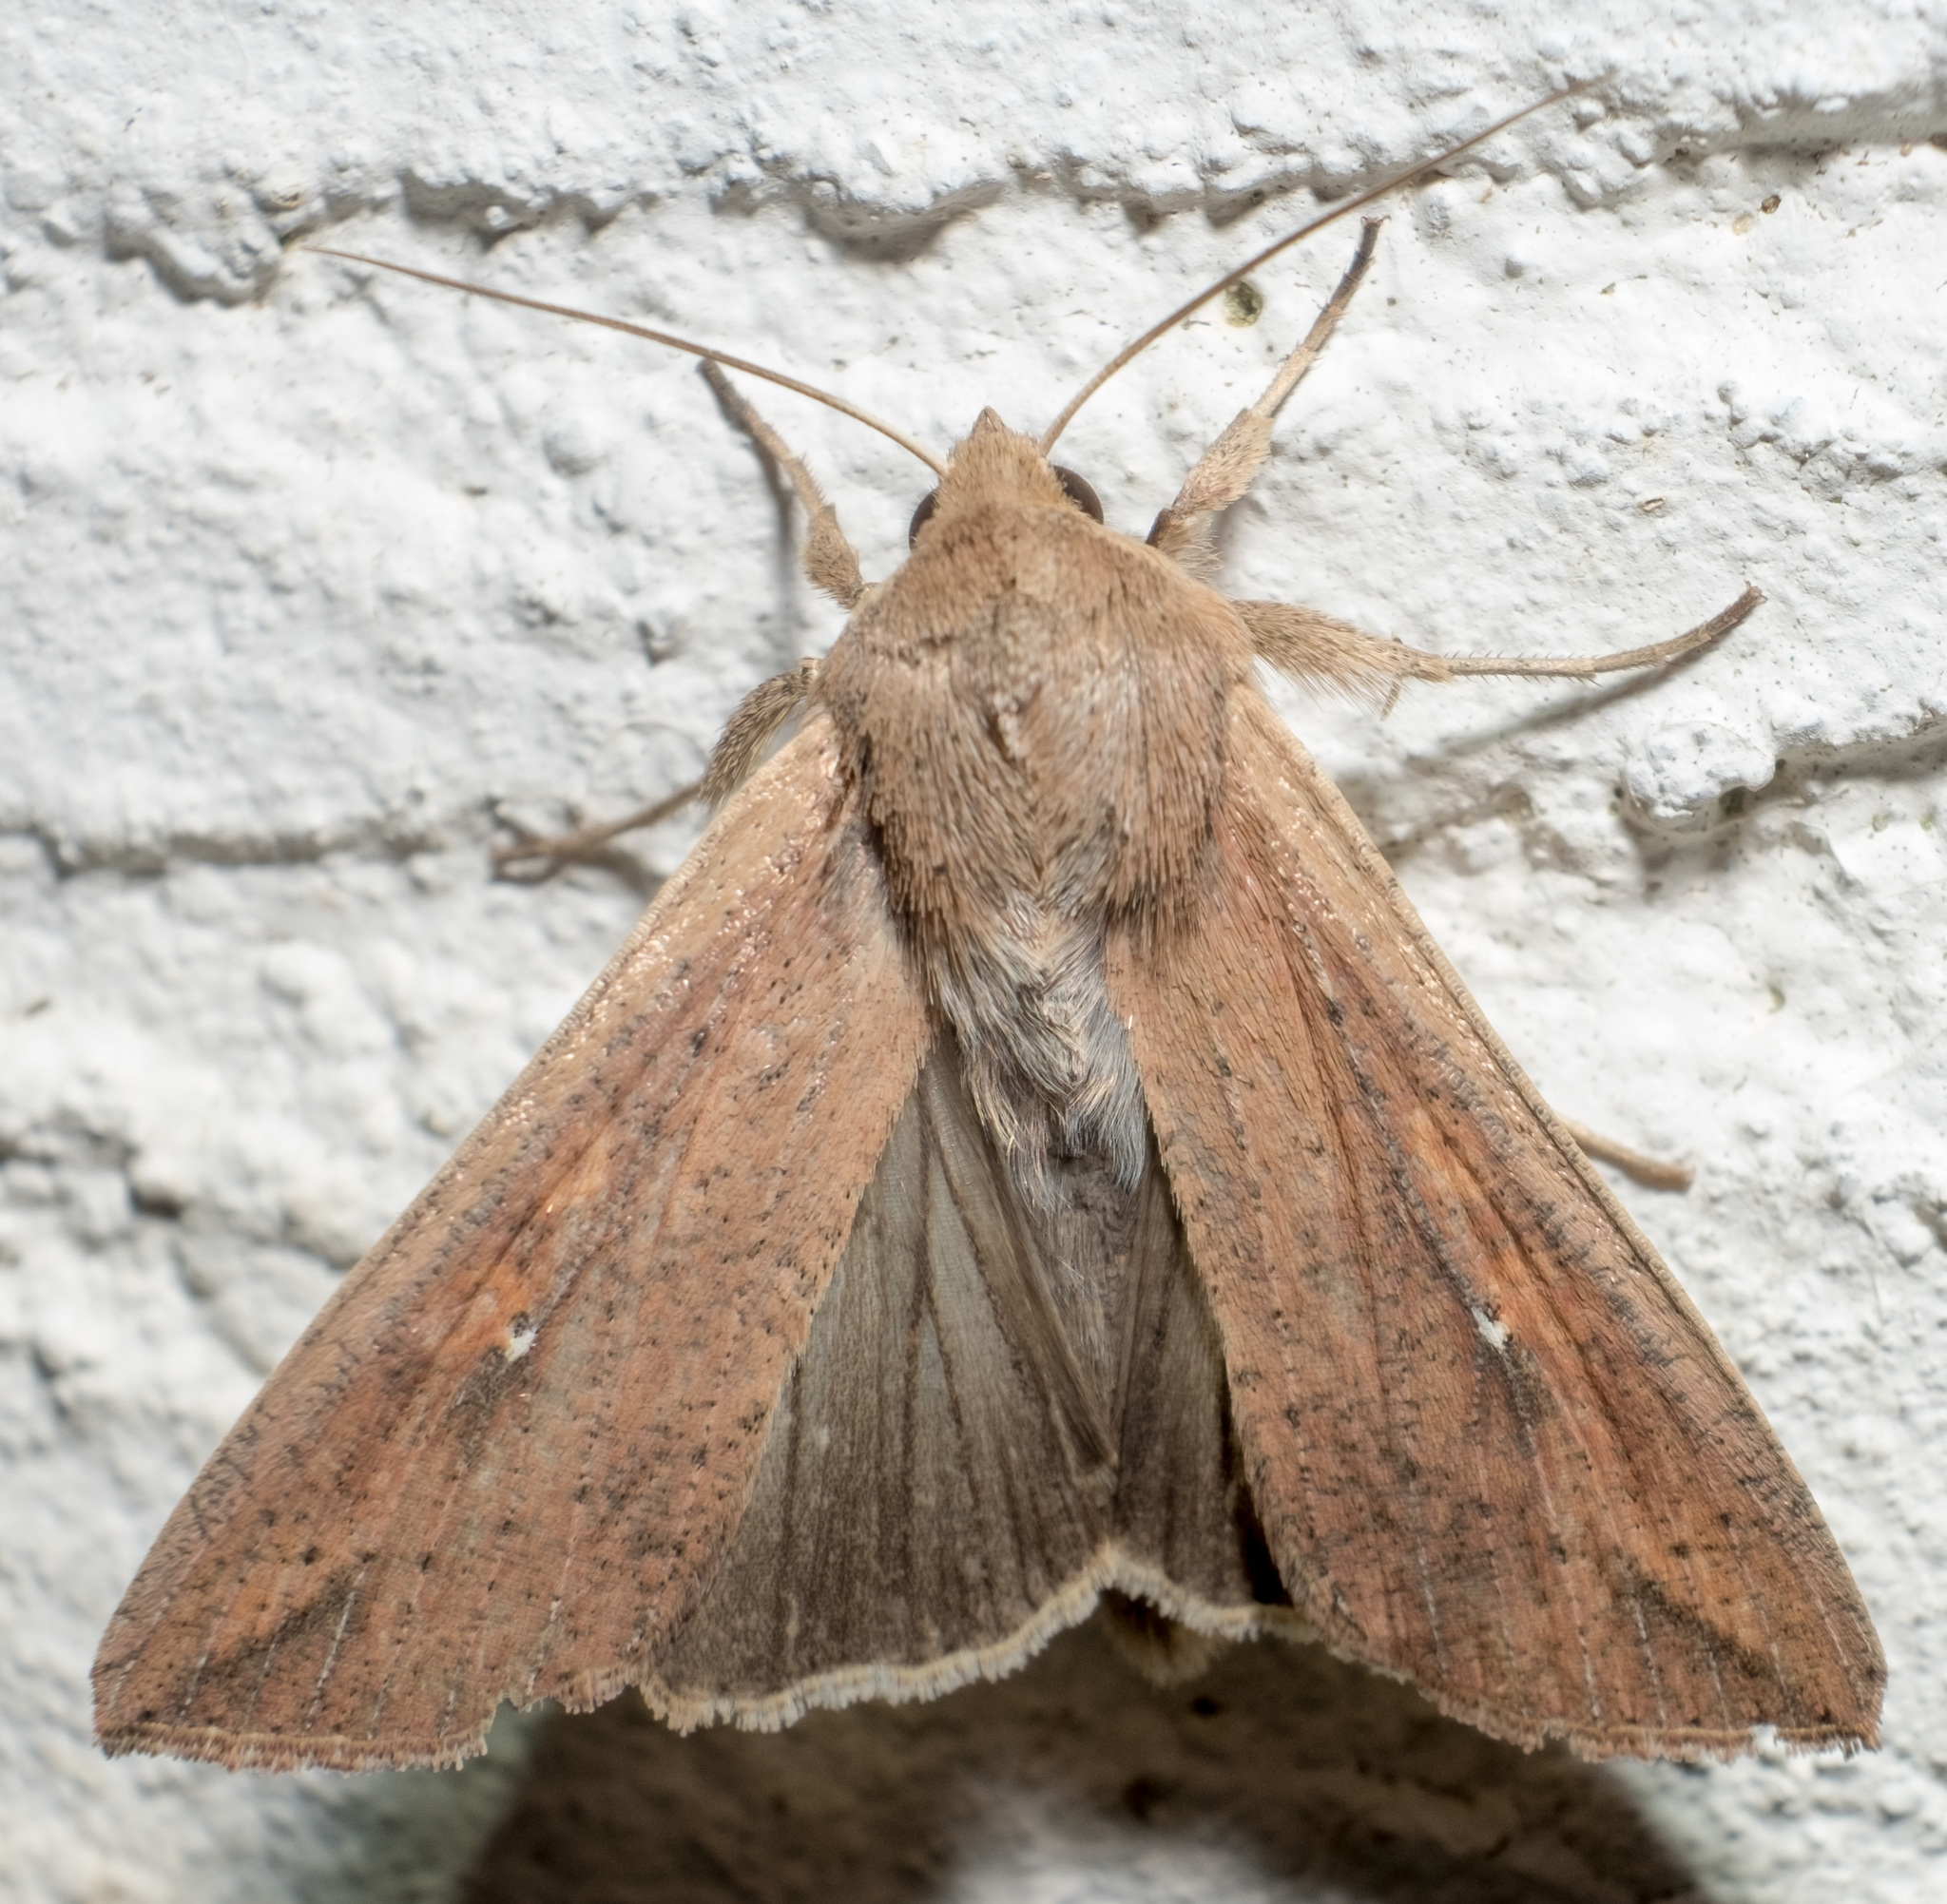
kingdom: Animalia
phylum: Arthropoda
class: Insecta
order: Lepidoptera
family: Noctuidae
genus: Mythimna
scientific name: Mythimna unipuncta
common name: White-speck
